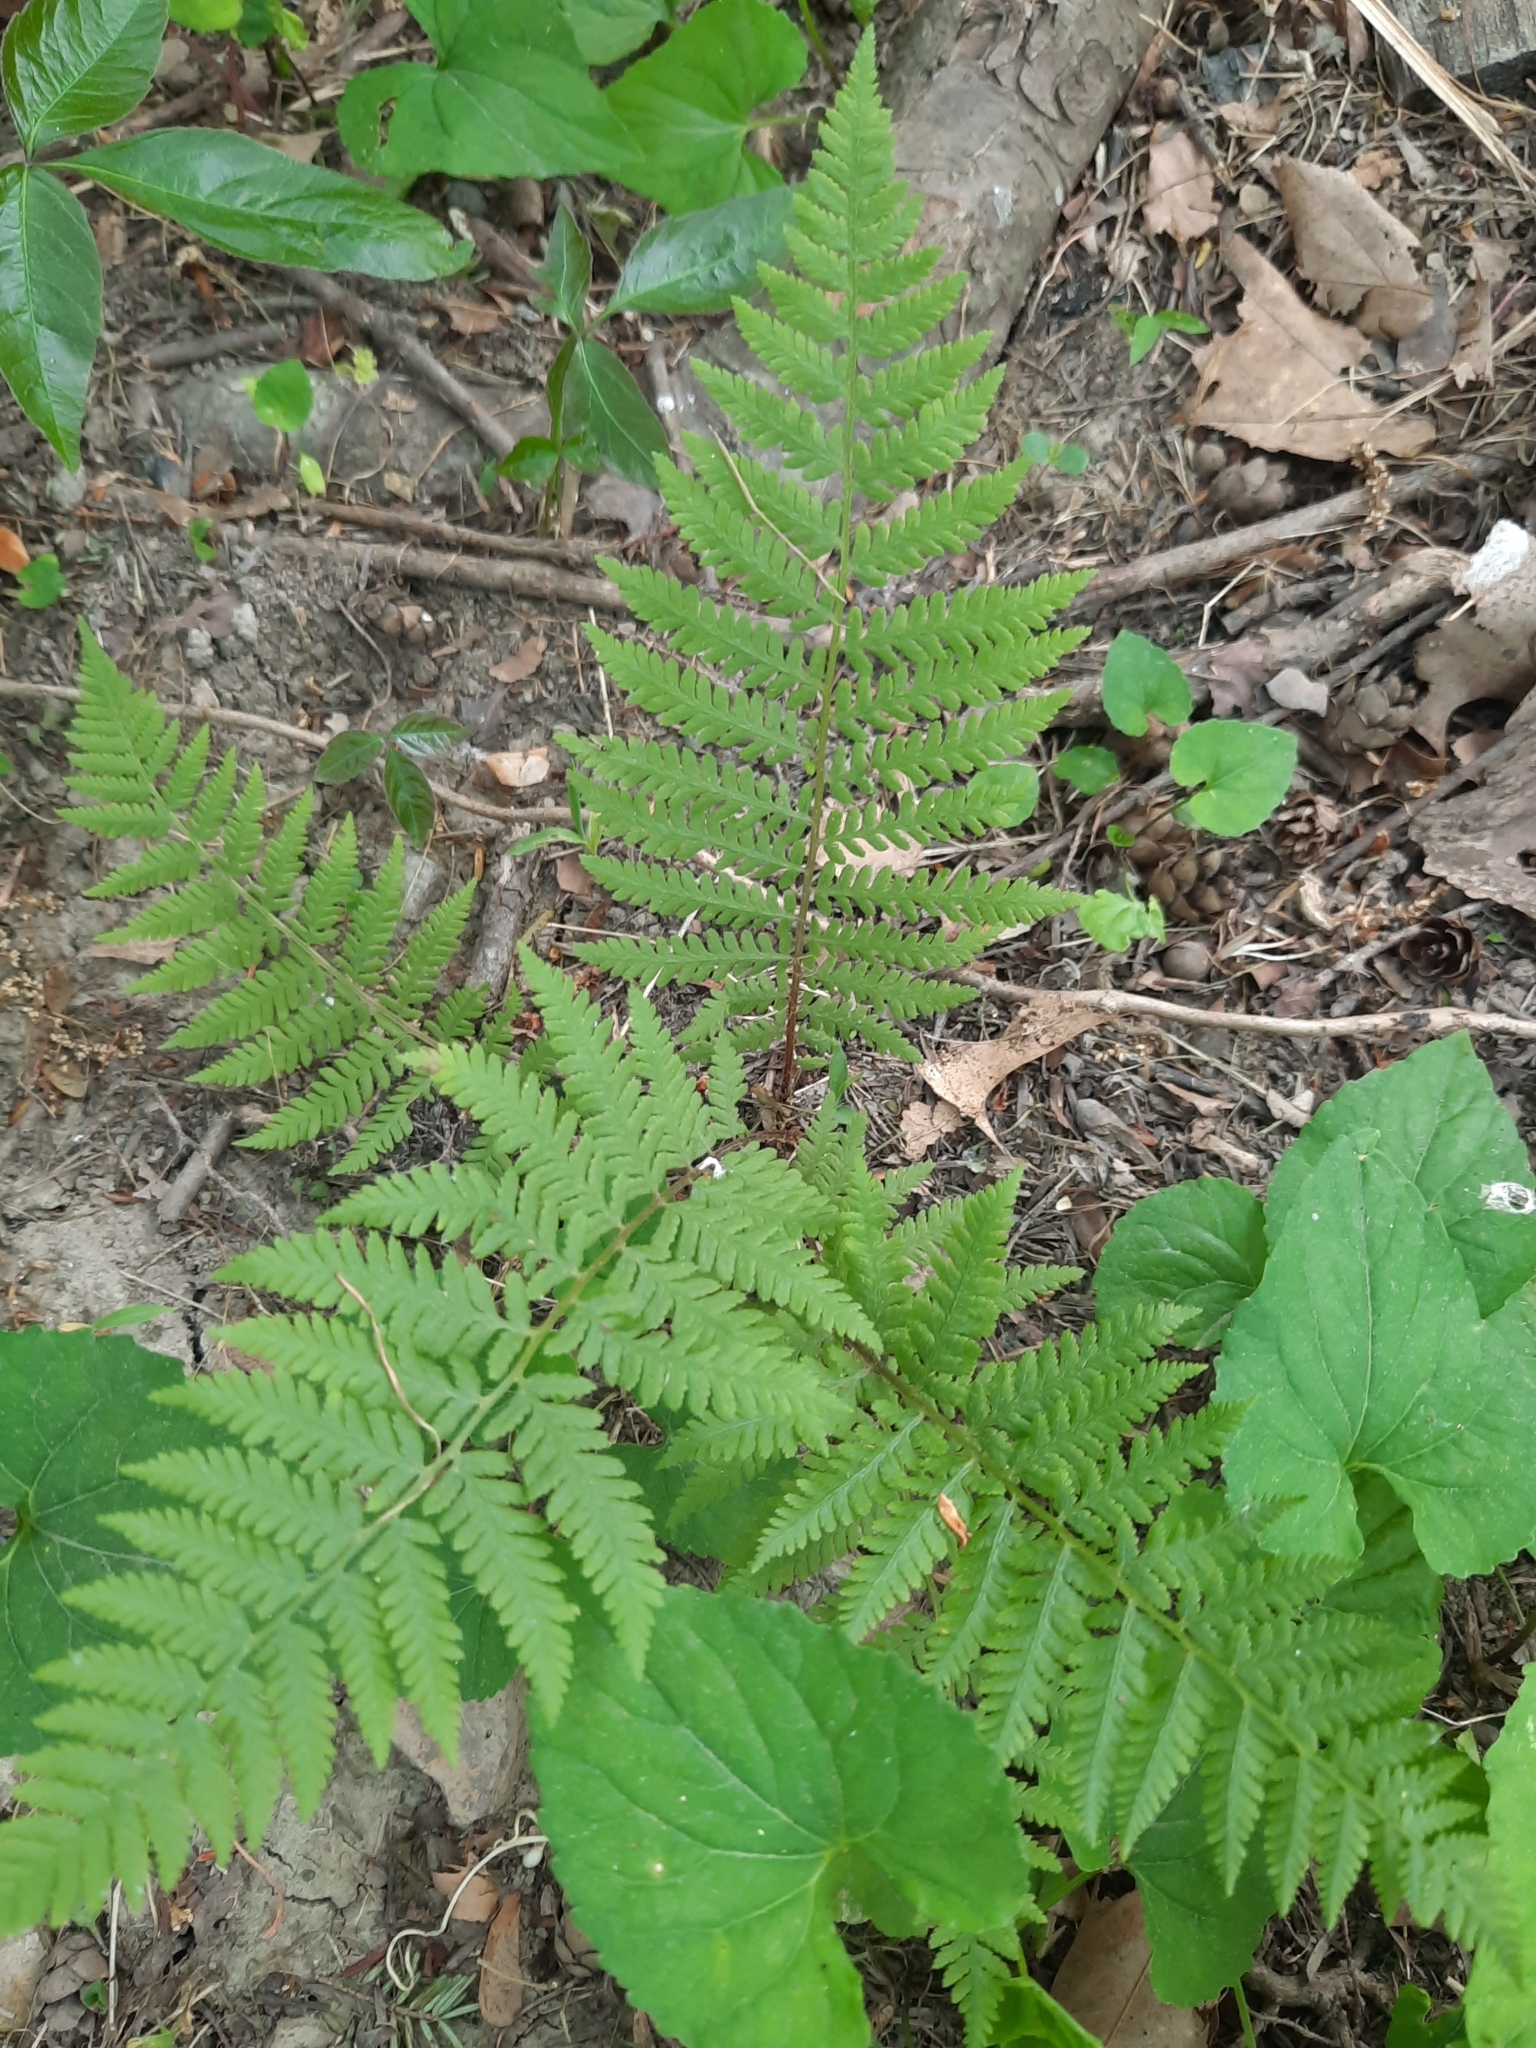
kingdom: Plantae
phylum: Tracheophyta
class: Polypodiopsida
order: Polypodiales
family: Athyriaceae
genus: Athyrium
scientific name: Athyrium angustum
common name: Northern lady fern
